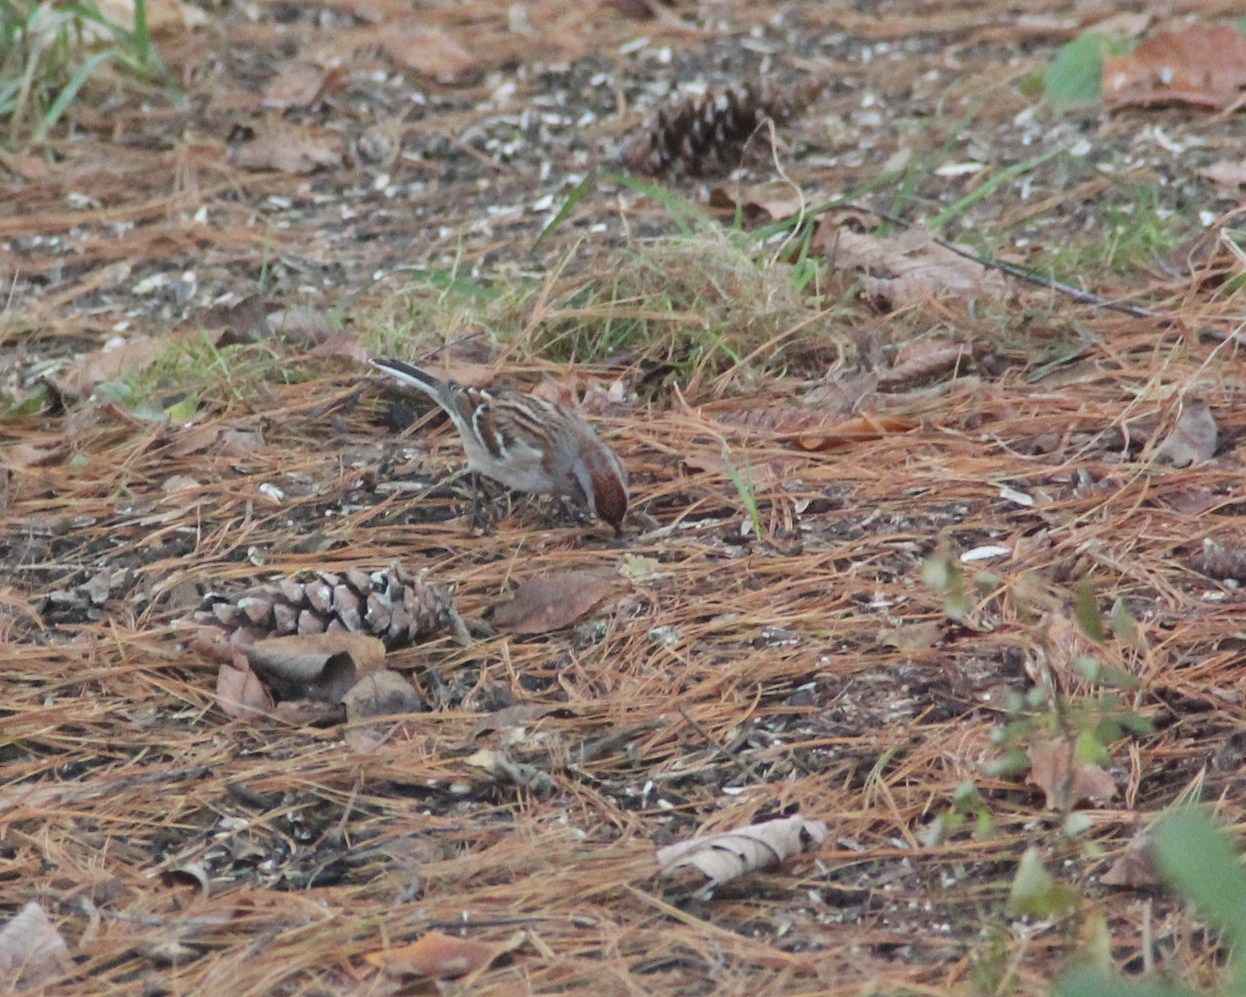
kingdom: Animalia
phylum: Chordata
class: Aves
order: Passeriformes
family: Passerellidae
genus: Spizelloides
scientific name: Spizelloides arborea
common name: American tree sparrow
